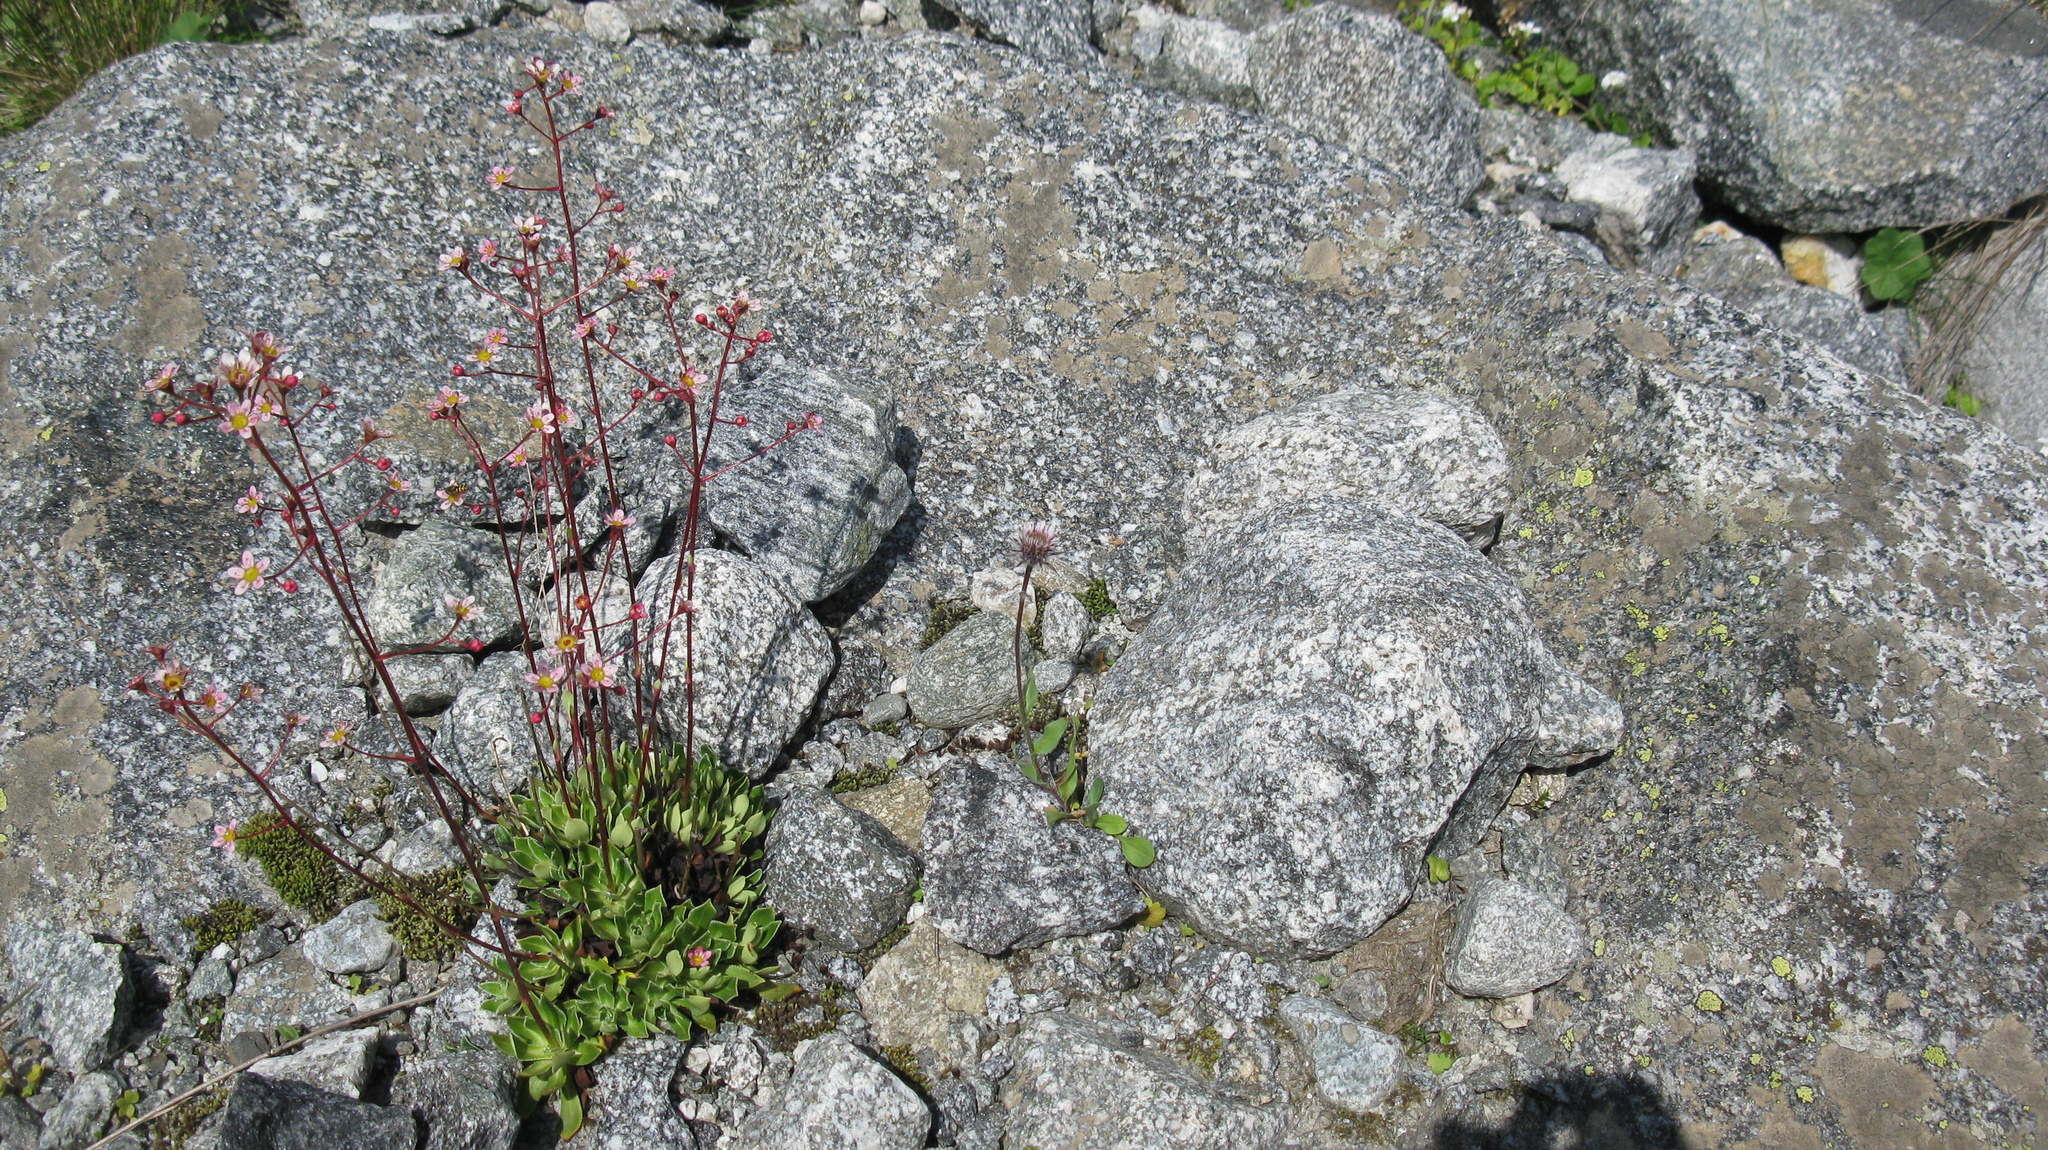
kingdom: Plantae
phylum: Tracheophyta
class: Magnoliopsida
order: Asterales
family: Asteraceae
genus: Erigeron
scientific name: Erigeron uniflorus
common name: Northern daisy
